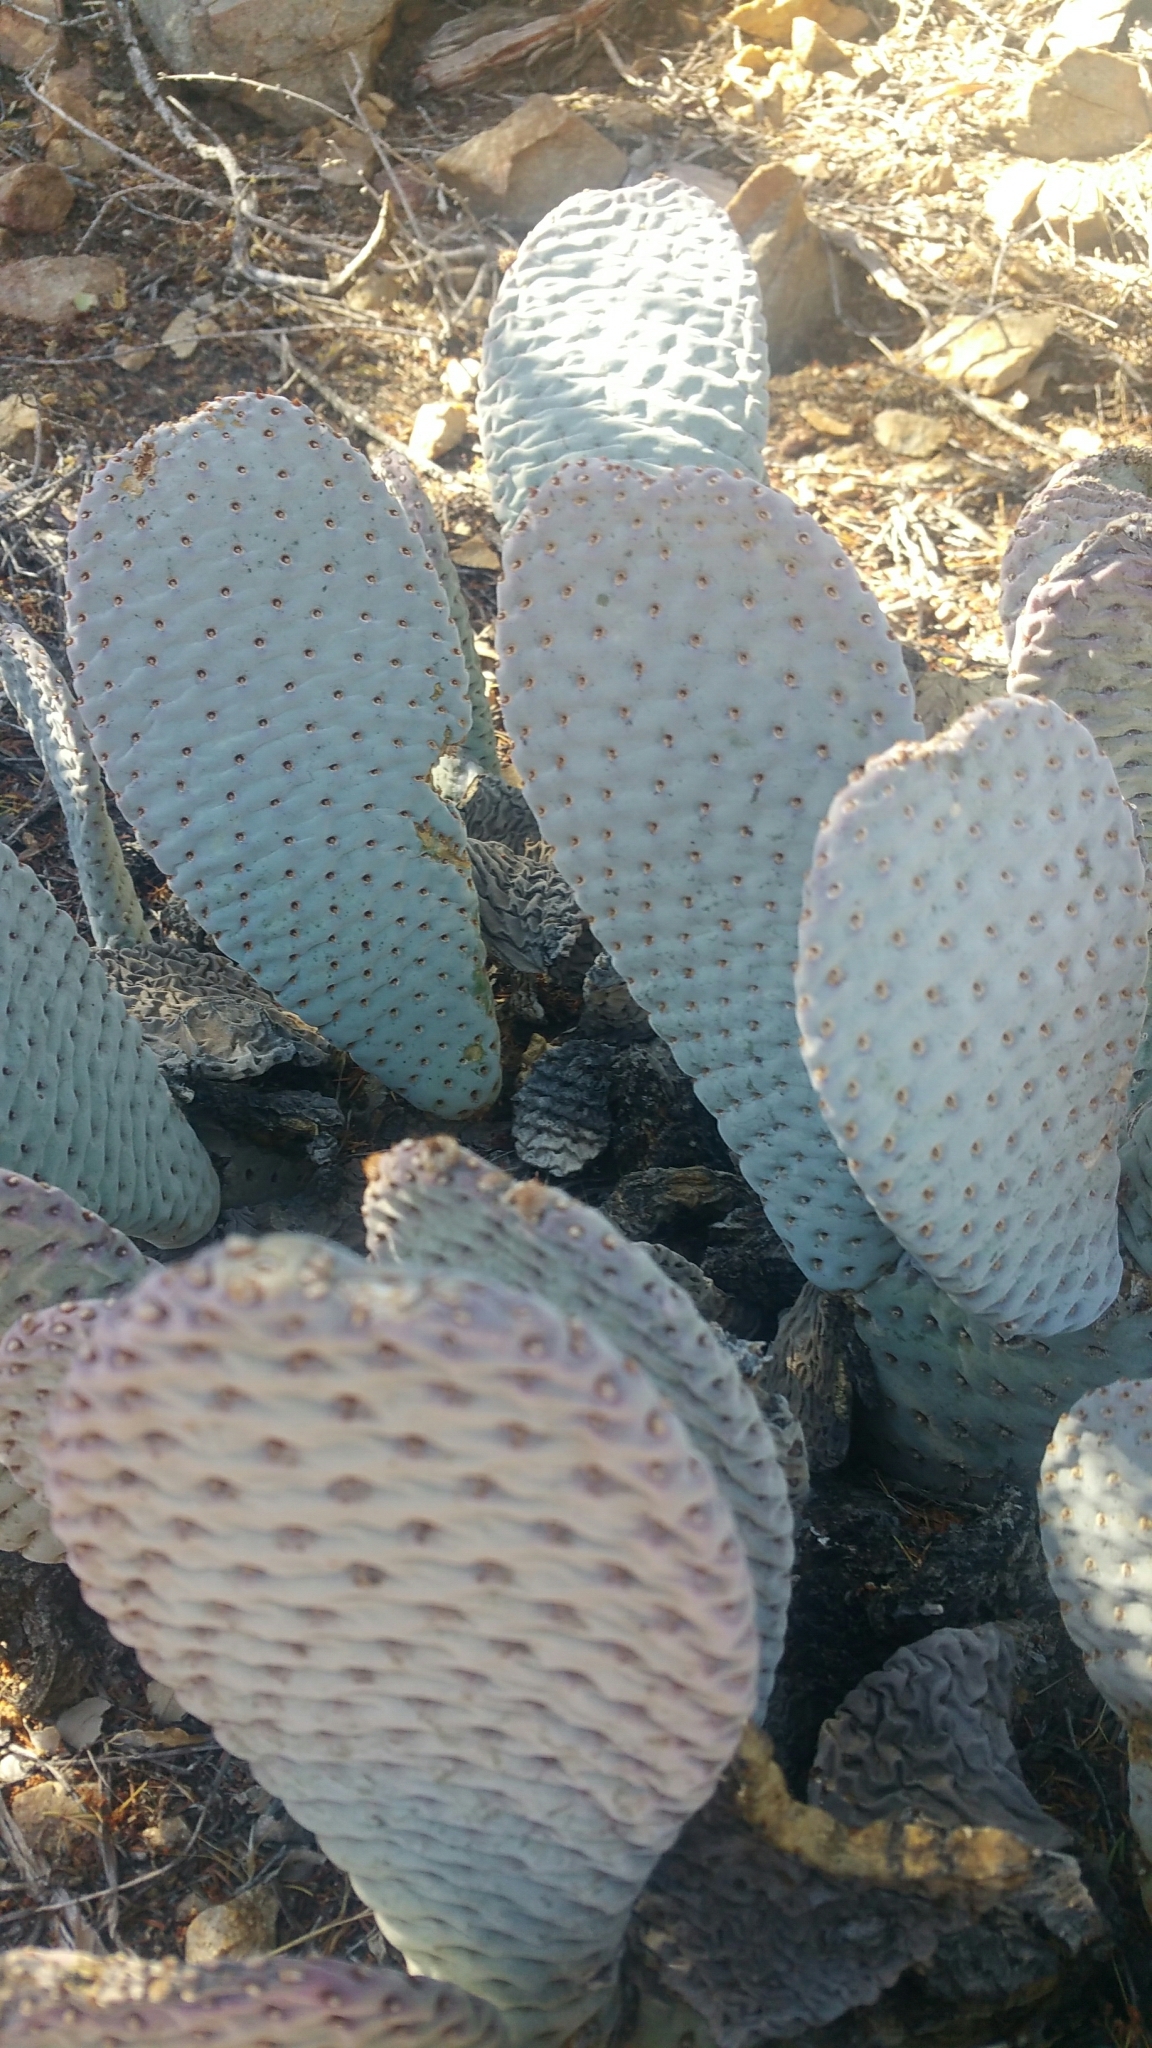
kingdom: Plantae
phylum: Tracheophyta
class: Magnoliopsida
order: Caryophyllales
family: Cactaceae
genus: Opuntia
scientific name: Opuntia basilaris
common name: Beavertail prickly-pear
